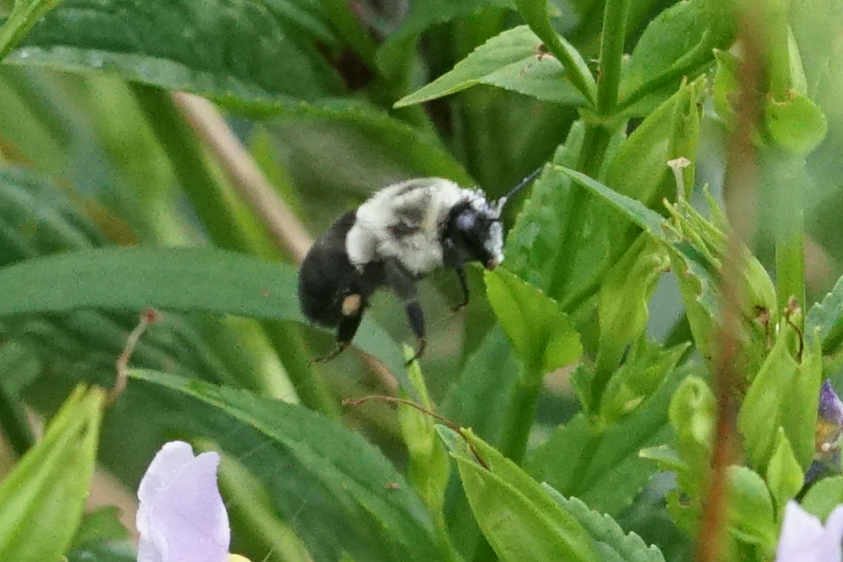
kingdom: Animalia
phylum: Arthropoda
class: Insecta
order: Hymenoptera
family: Apidae
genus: Bombus
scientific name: Bombus impatiens
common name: Common eastern bumble bee
